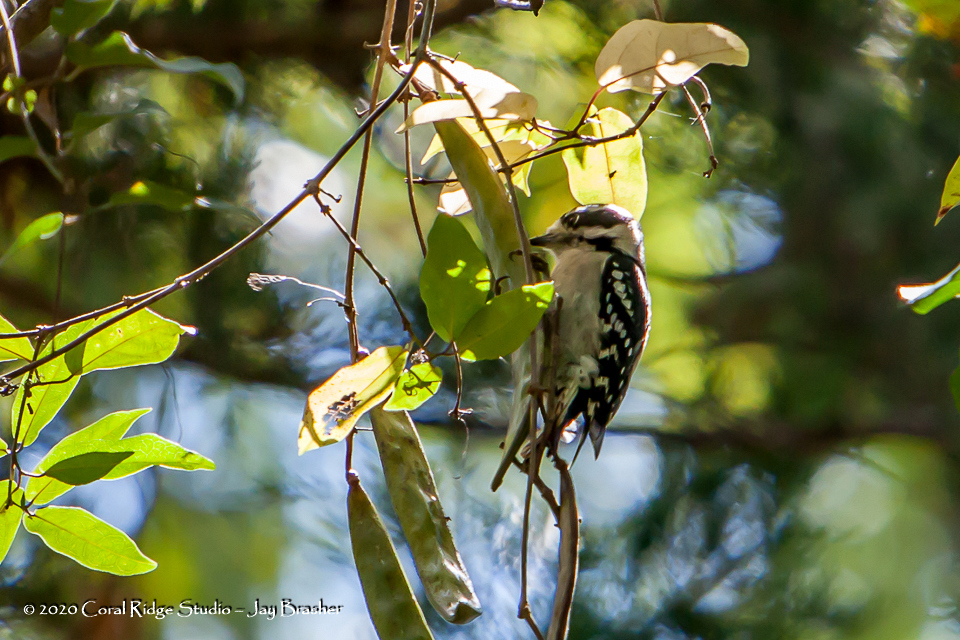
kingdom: Animalia
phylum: Chordata
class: Aves
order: Piciformes
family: Picidae
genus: Dryobates
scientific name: Dryobates pubescens
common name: Downy woodpecker
